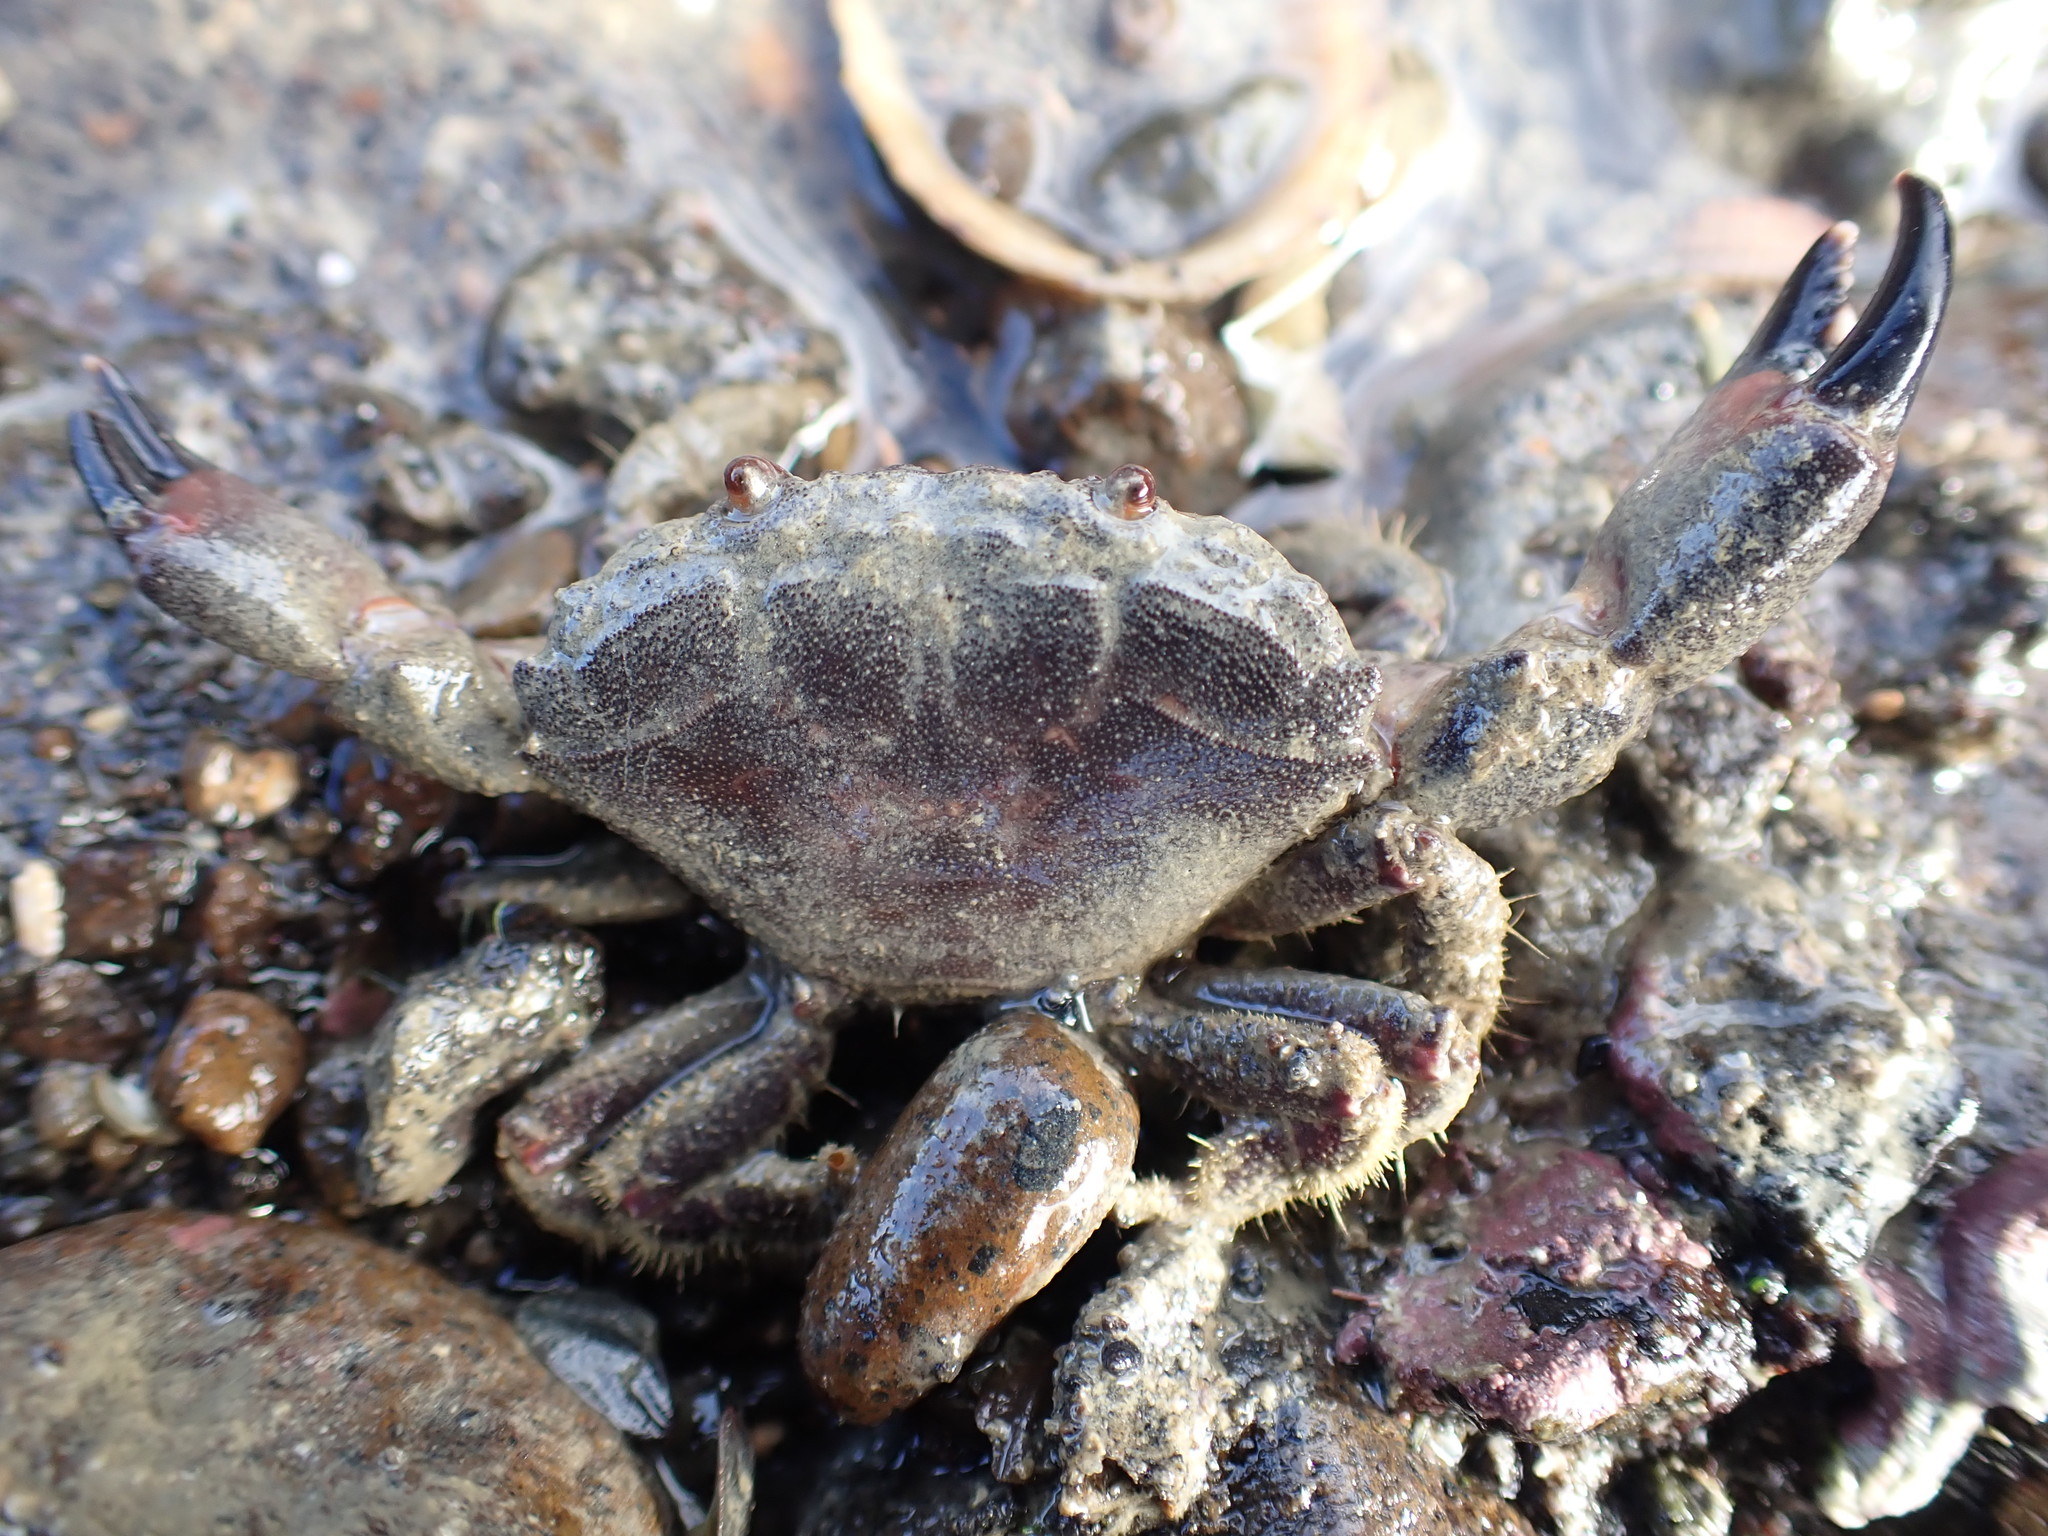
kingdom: Animalia
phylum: Arthropoda
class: Malacostraca
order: Decapoda
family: Oziidae
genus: Ozius
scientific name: Ozius deplanatus
